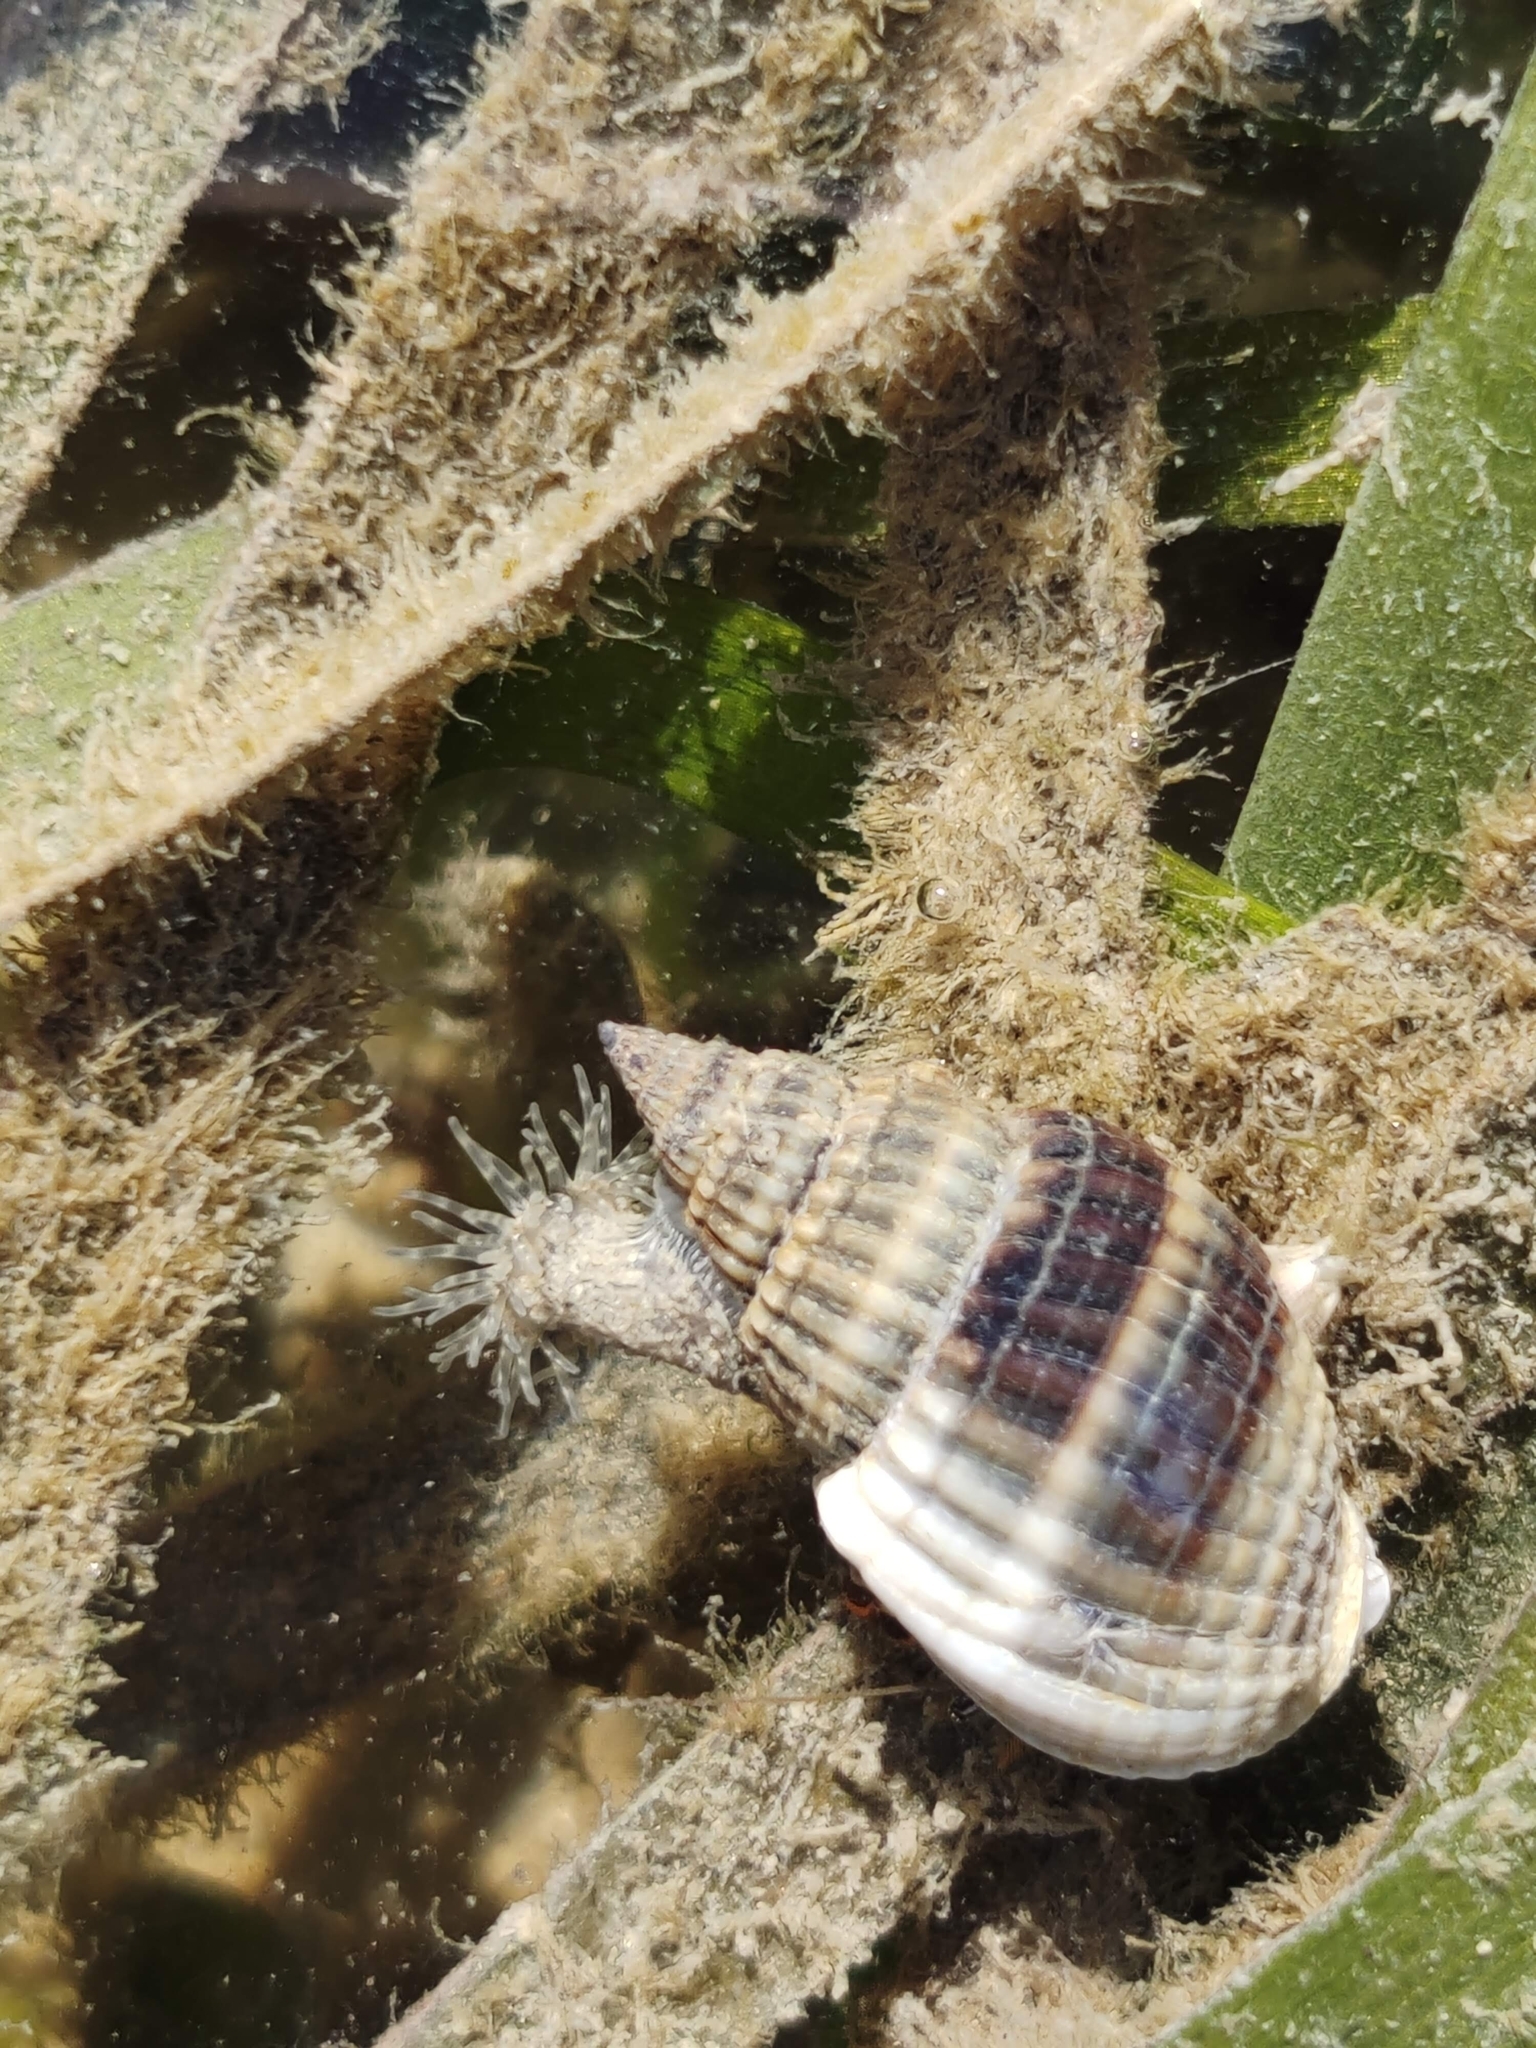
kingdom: Animalia
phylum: Mollusca
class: Gastropoda
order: Neogastropoda
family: Nassariidae
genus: Nassarius
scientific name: Nassarius livescens
